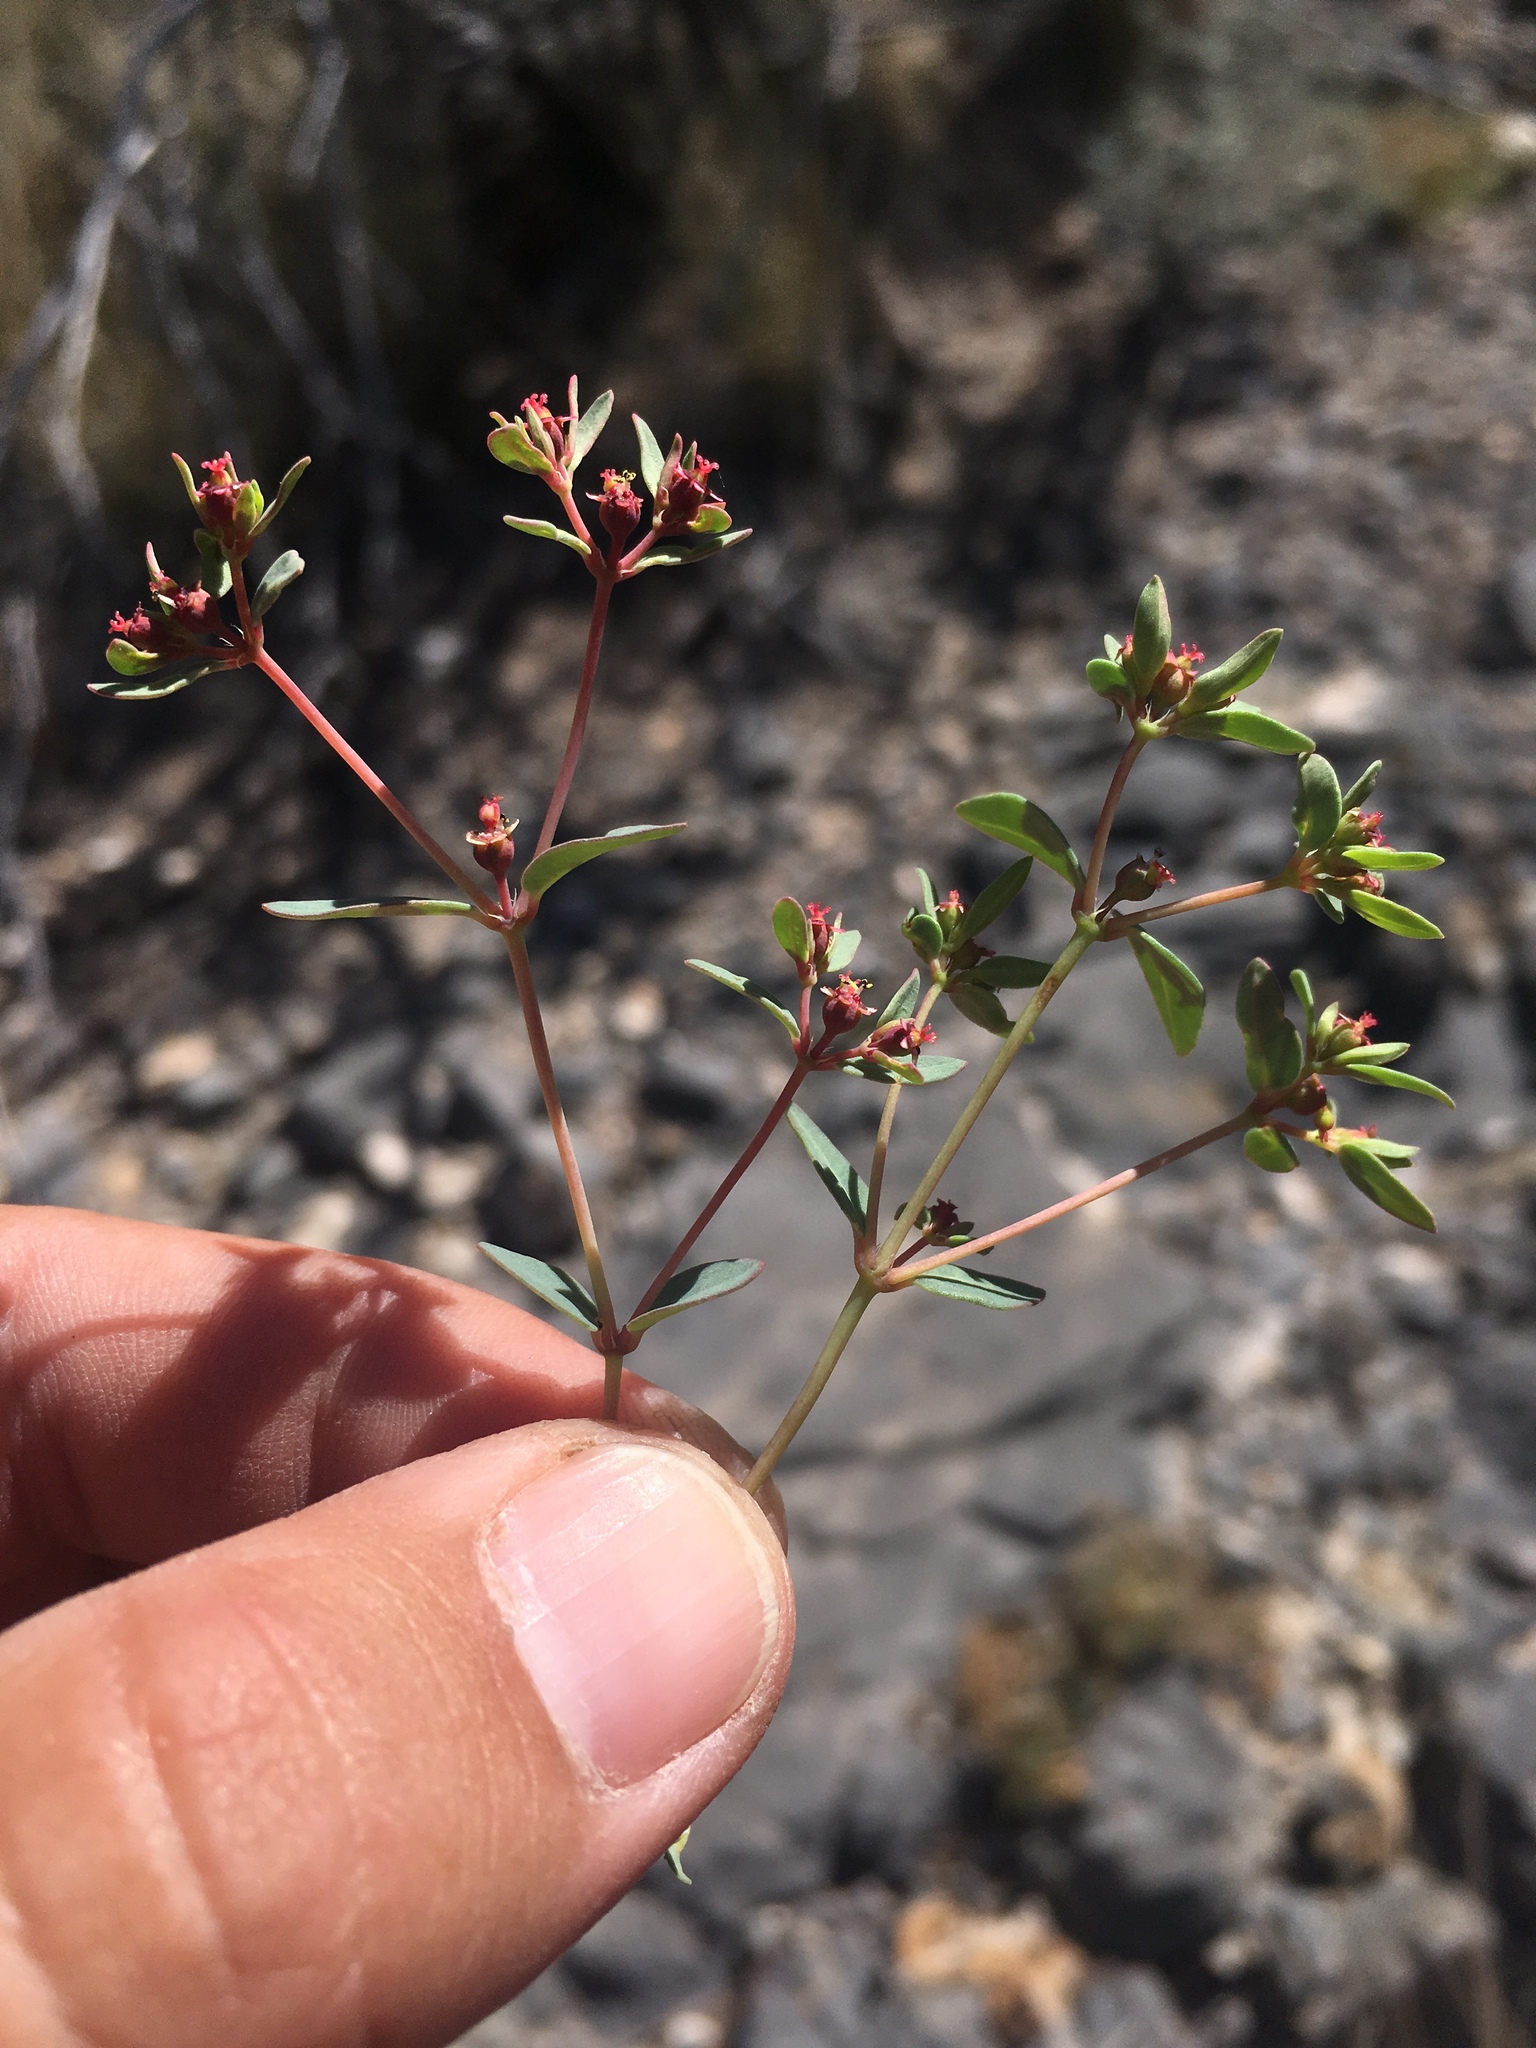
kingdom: Plantae
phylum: Tracheophyta
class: Magnoliopsida
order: Malpighiales
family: Euphorbiaceae
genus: Euphorbia
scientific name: Euphorbia chaetocalyx
